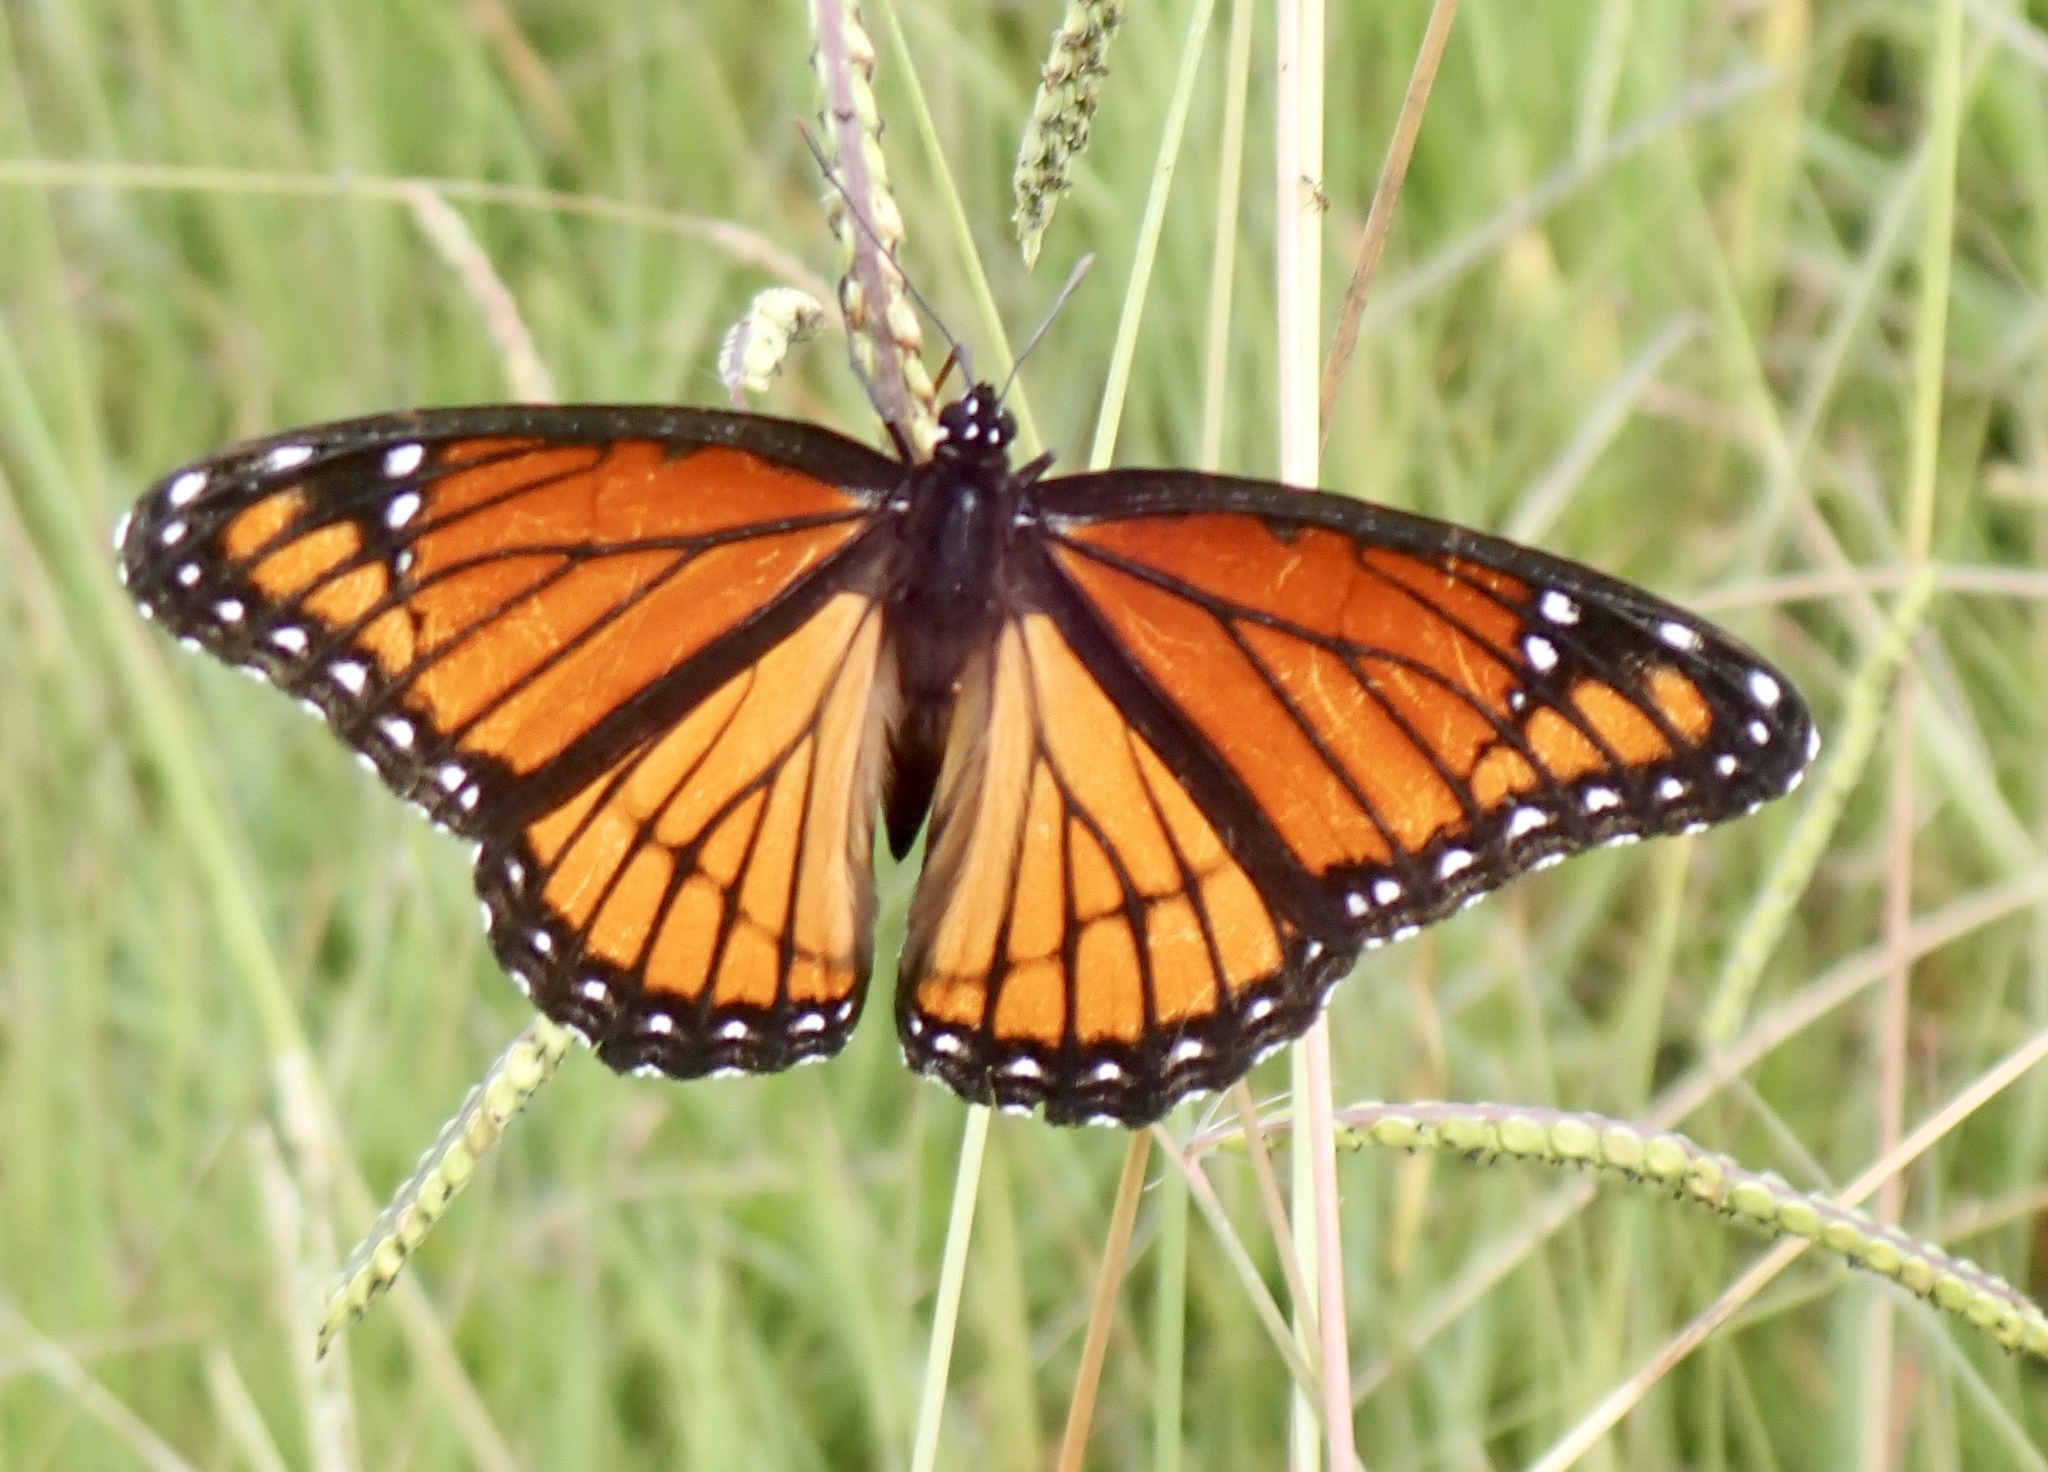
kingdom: Animalia
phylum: Arthropoda
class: Insecta
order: Lepidoptera
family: Nymphalidae
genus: Limenitis
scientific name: Limenitis archippus
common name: Viceroy
